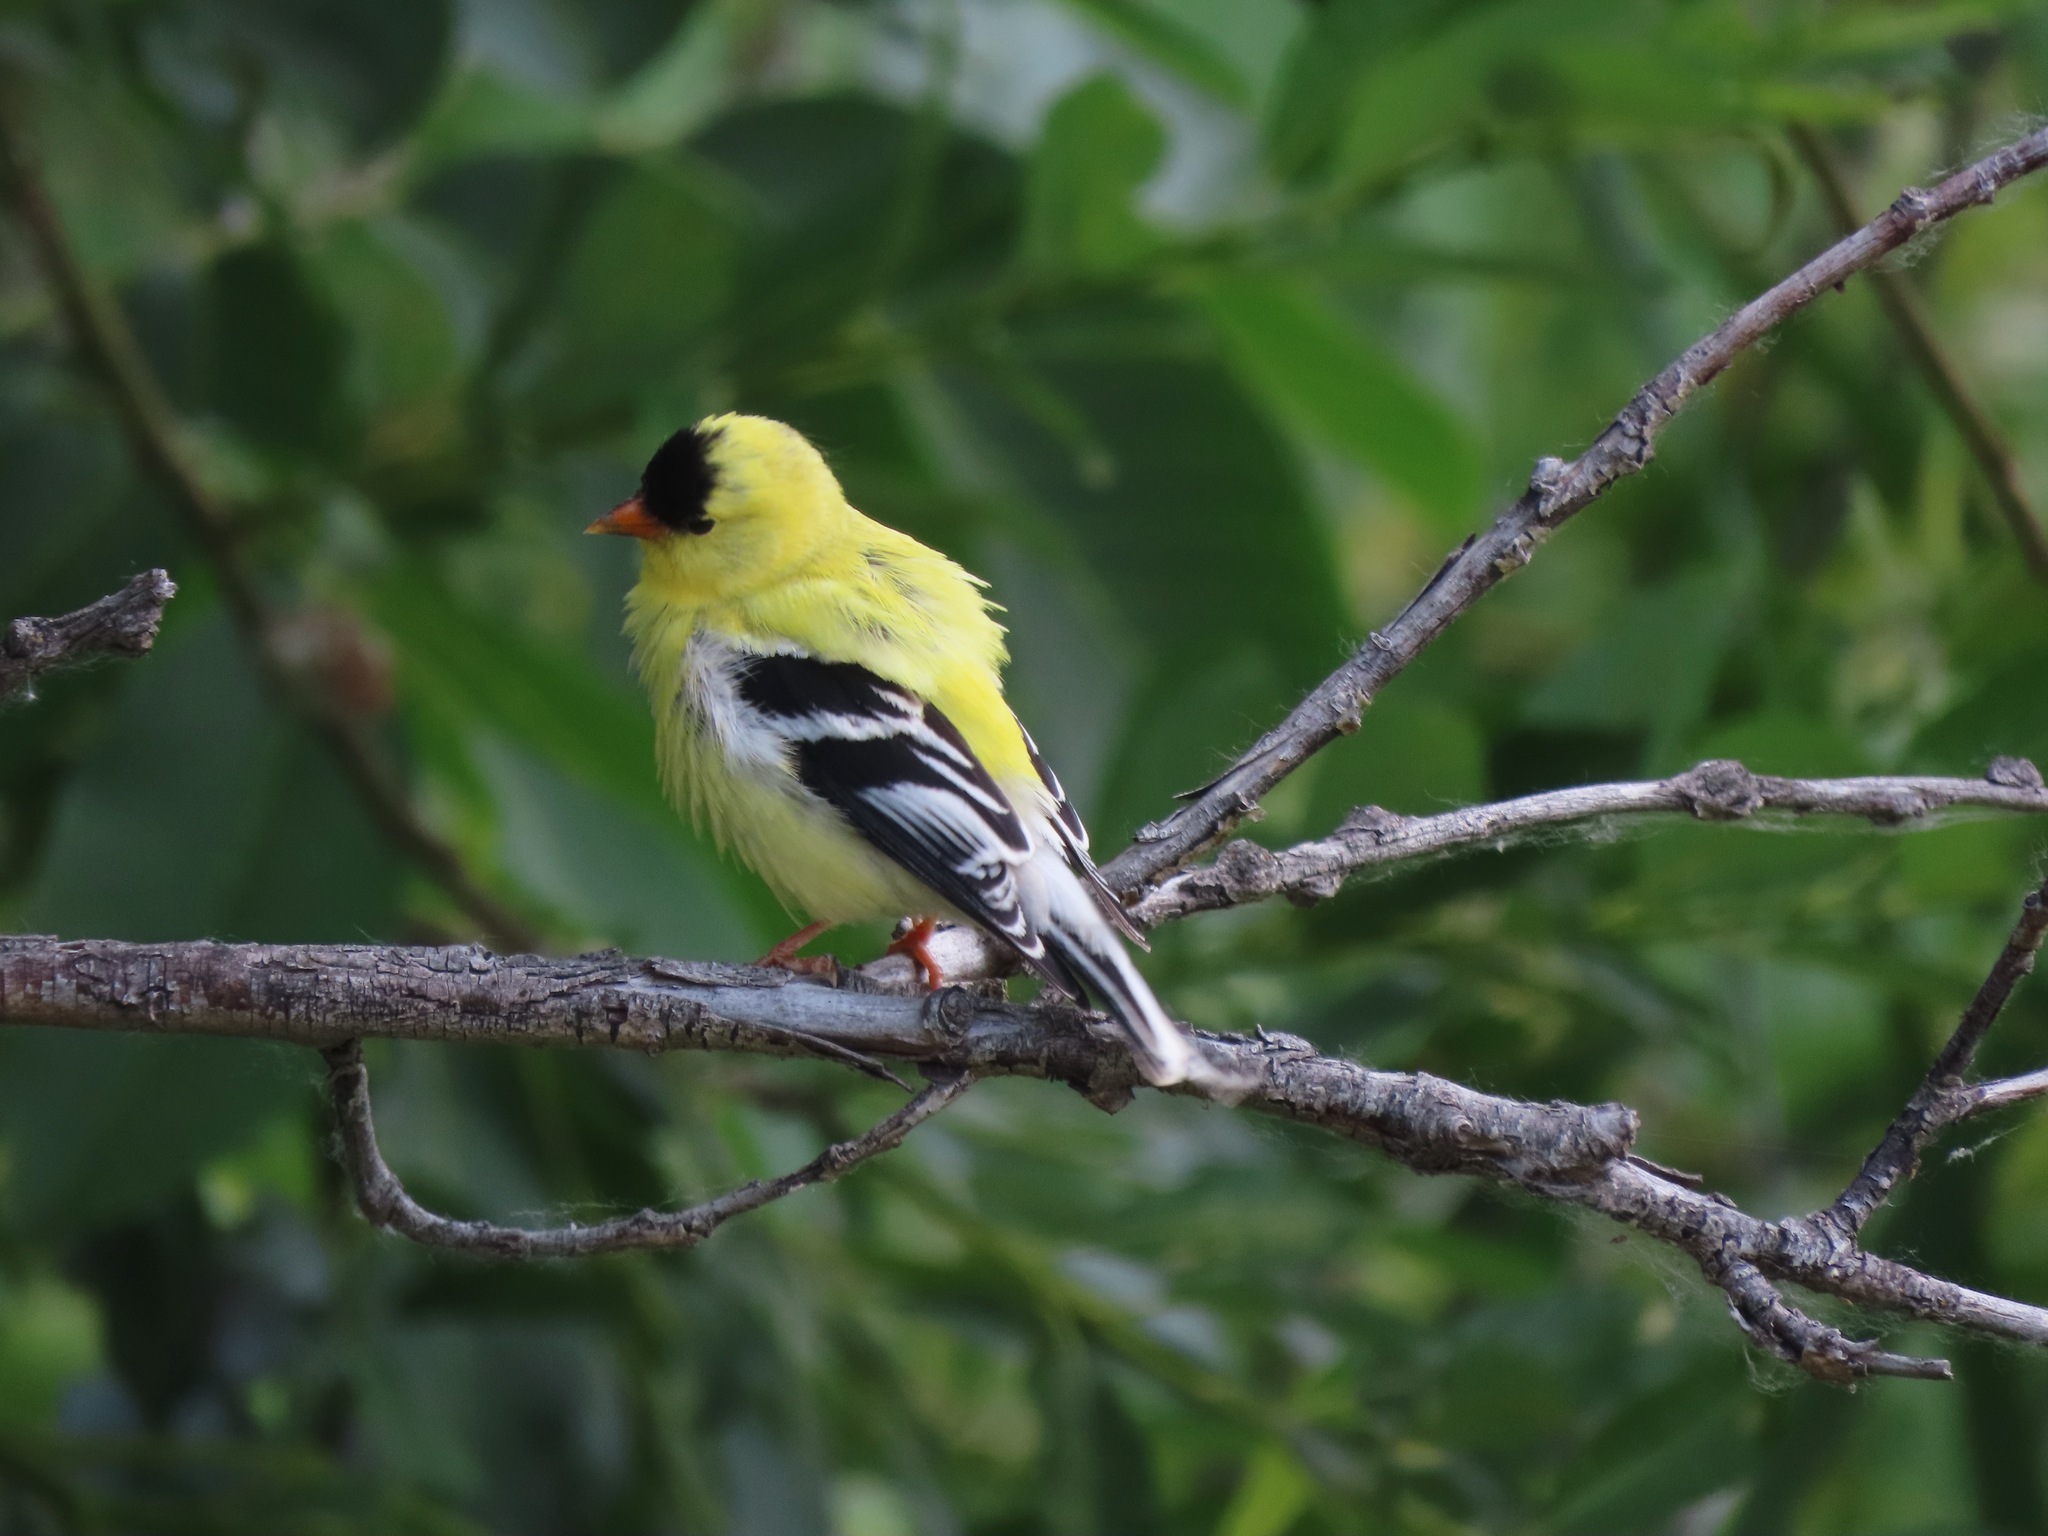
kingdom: Animalia
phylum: Chordata
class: Aves
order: Passeriformes
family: Fringillidae
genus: Spinus
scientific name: Spinus tristis
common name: American goldfinch
